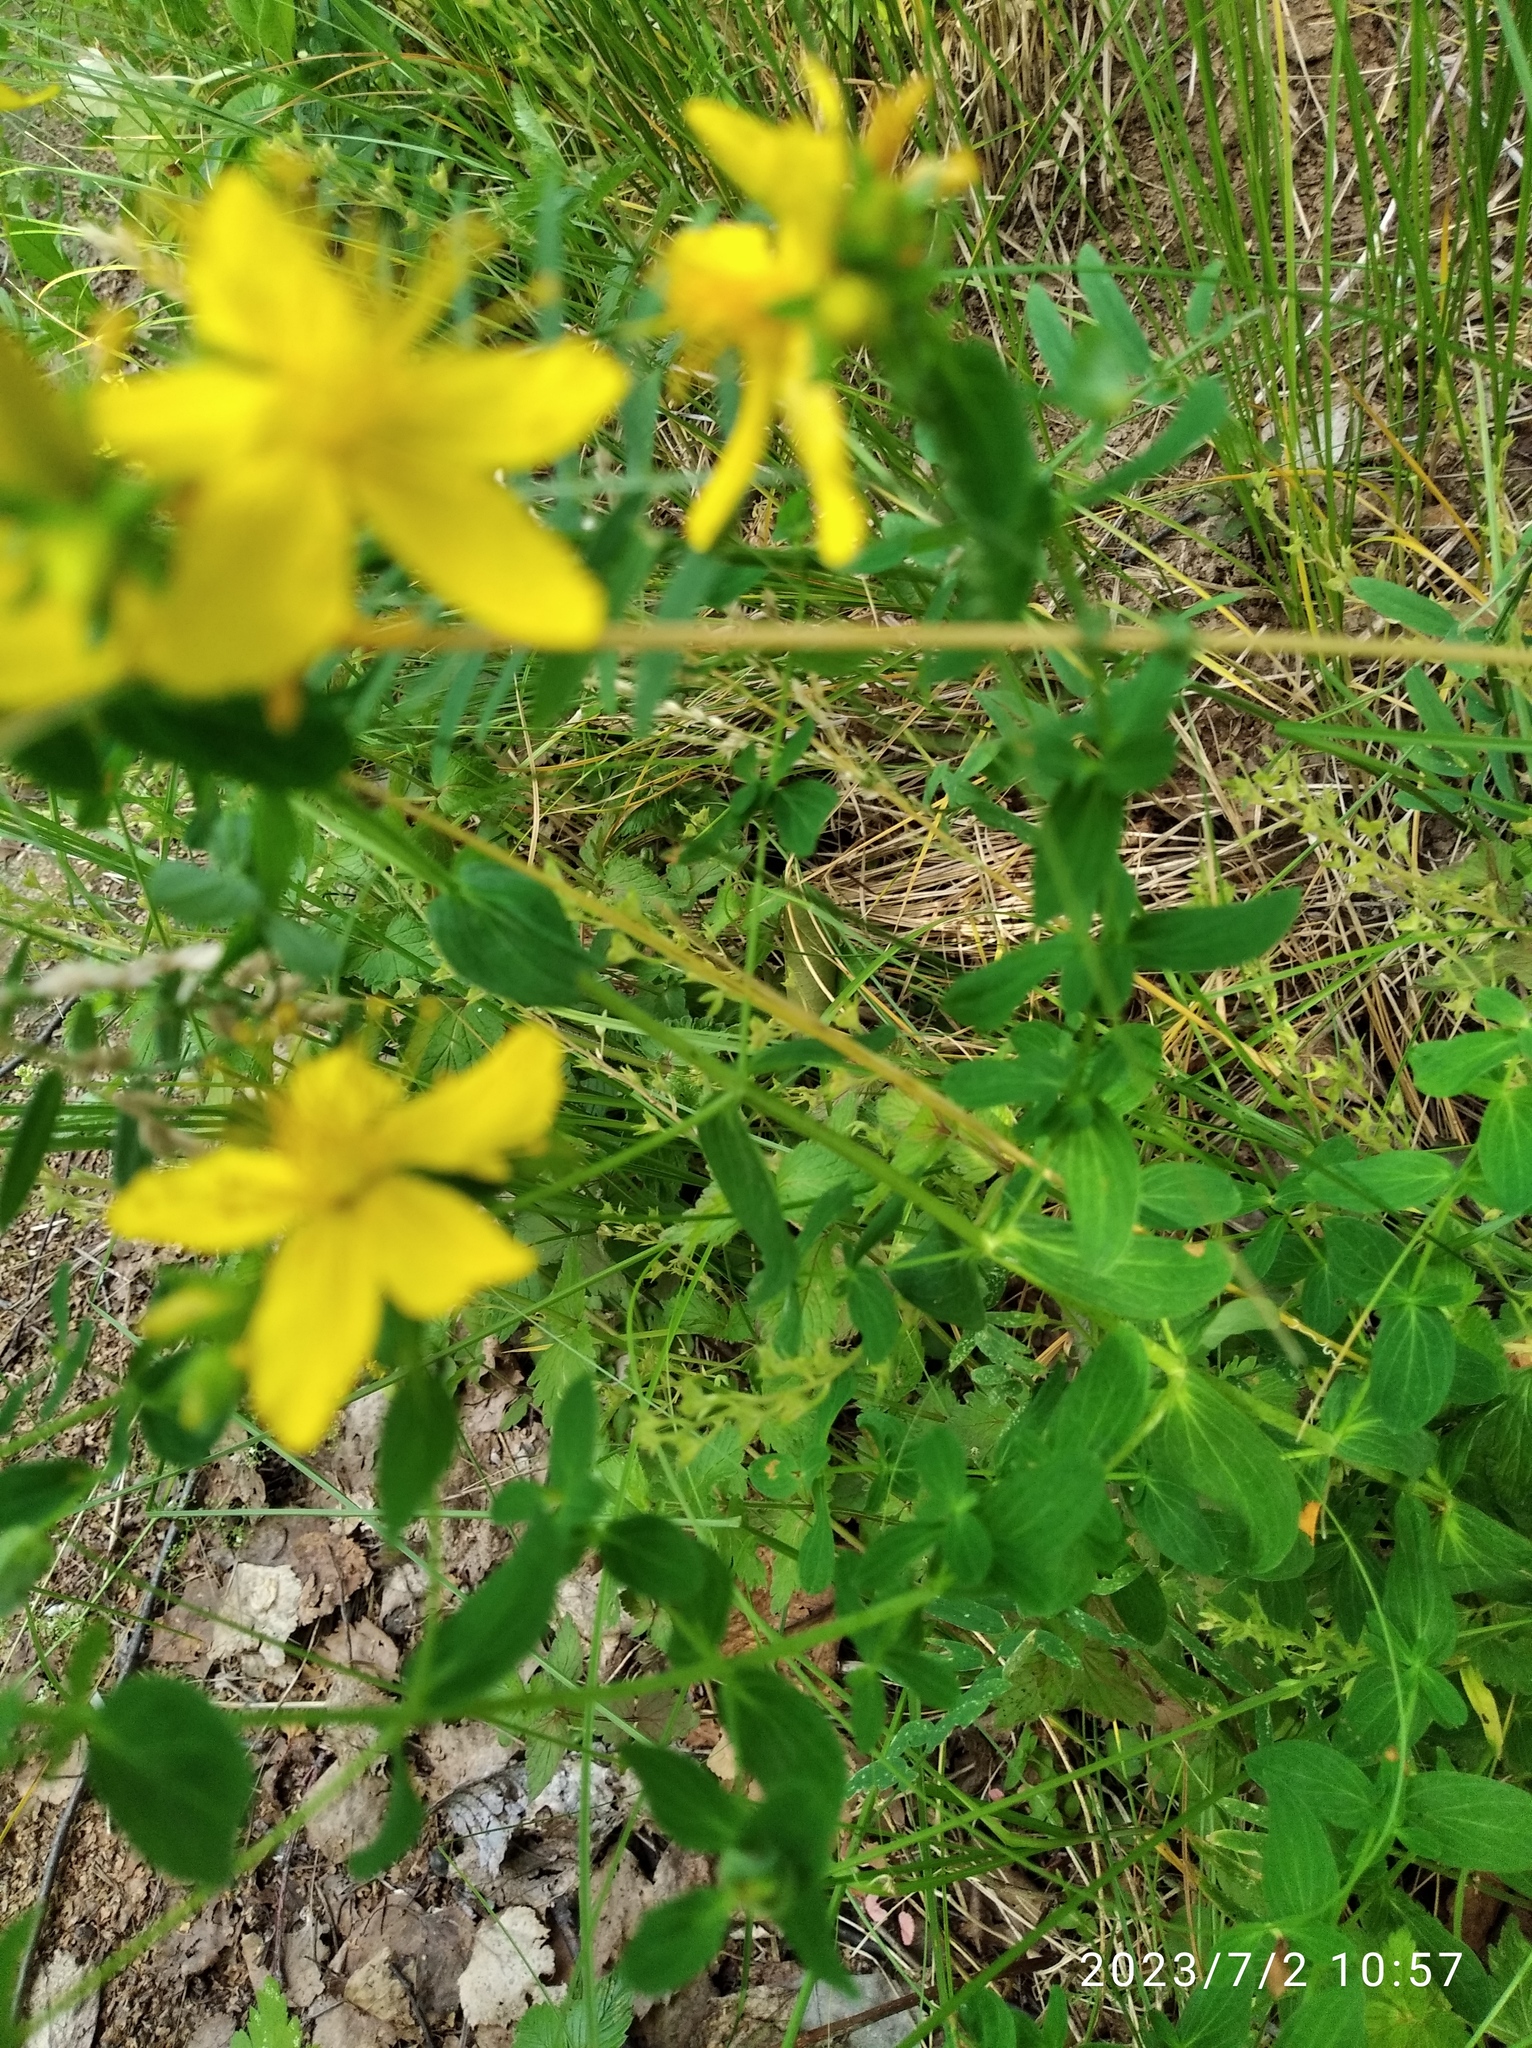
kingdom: Plantae
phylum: Tracheophyta
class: Magnoliopsida
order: Malpighiales
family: Hypericaceae
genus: Hypericum
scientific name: Hypericum perforatum
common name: Common st. johnswort
